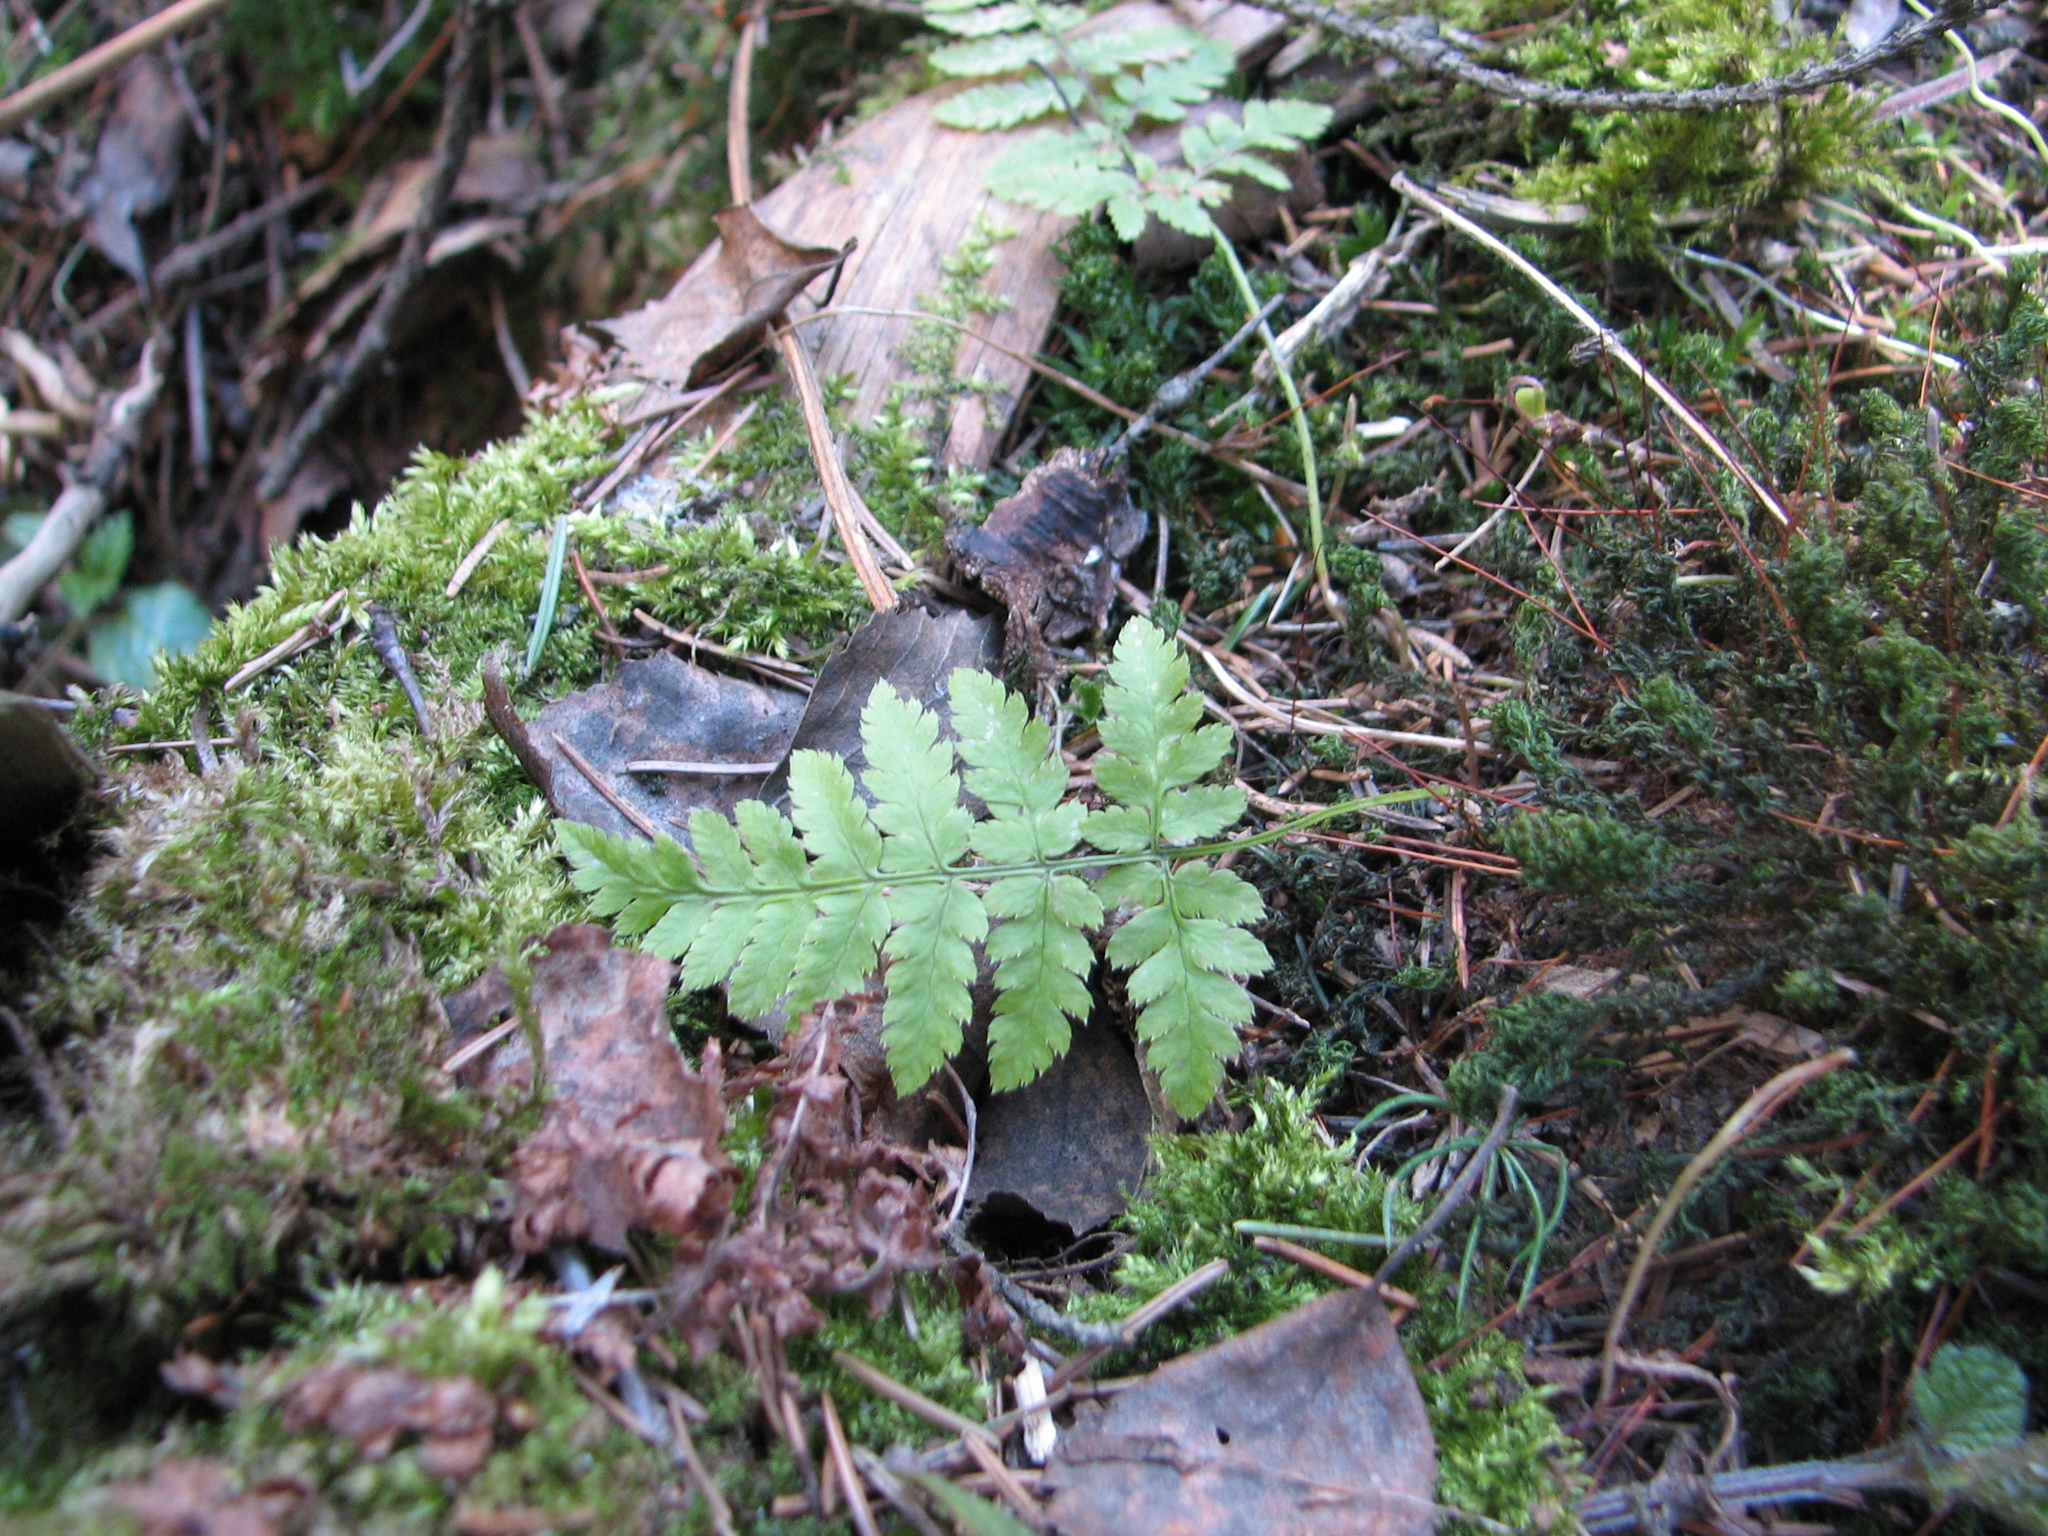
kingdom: Plantae
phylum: Tracheophyta
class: Polypodiopsida
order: Polypodiales
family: Dryopteridaceae
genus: Dryopteris
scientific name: Dryopteris carthusiana
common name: Narrow buckler-fern
